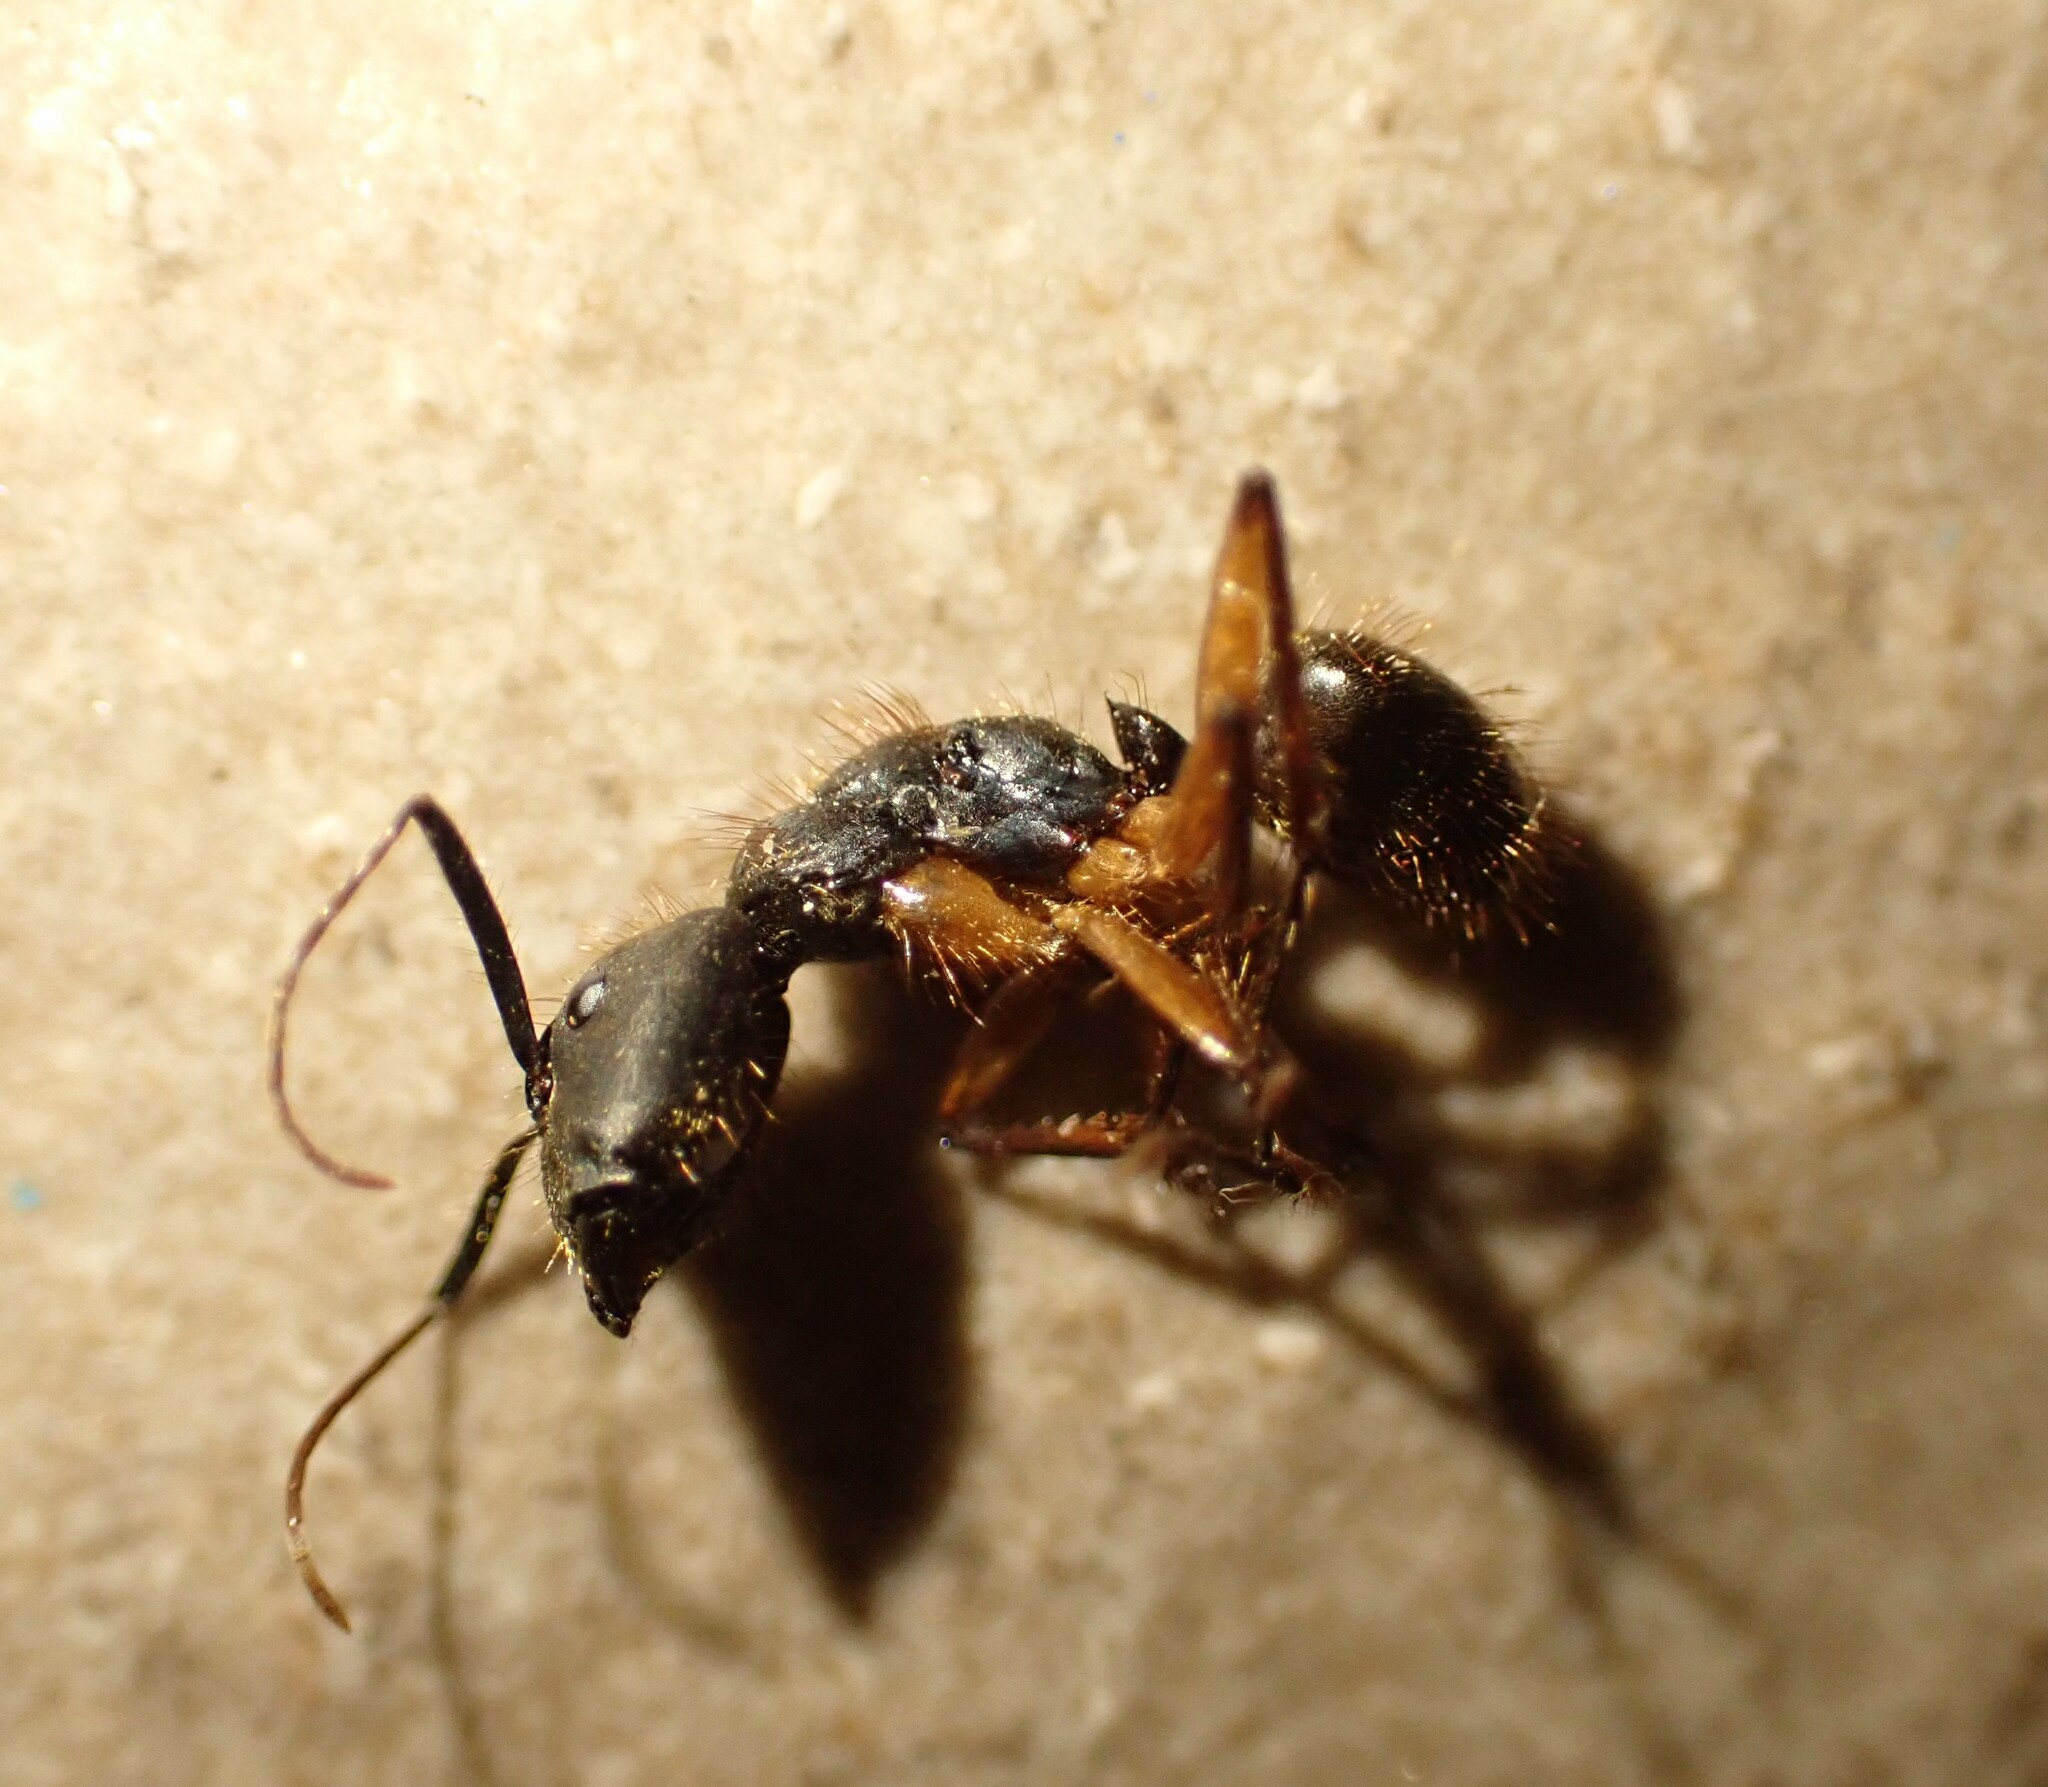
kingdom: Animalia
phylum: Arthropoda
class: Insecta
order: Hymenoptera
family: Formicidae
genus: Camponotus
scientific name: Camponotus renggeri
